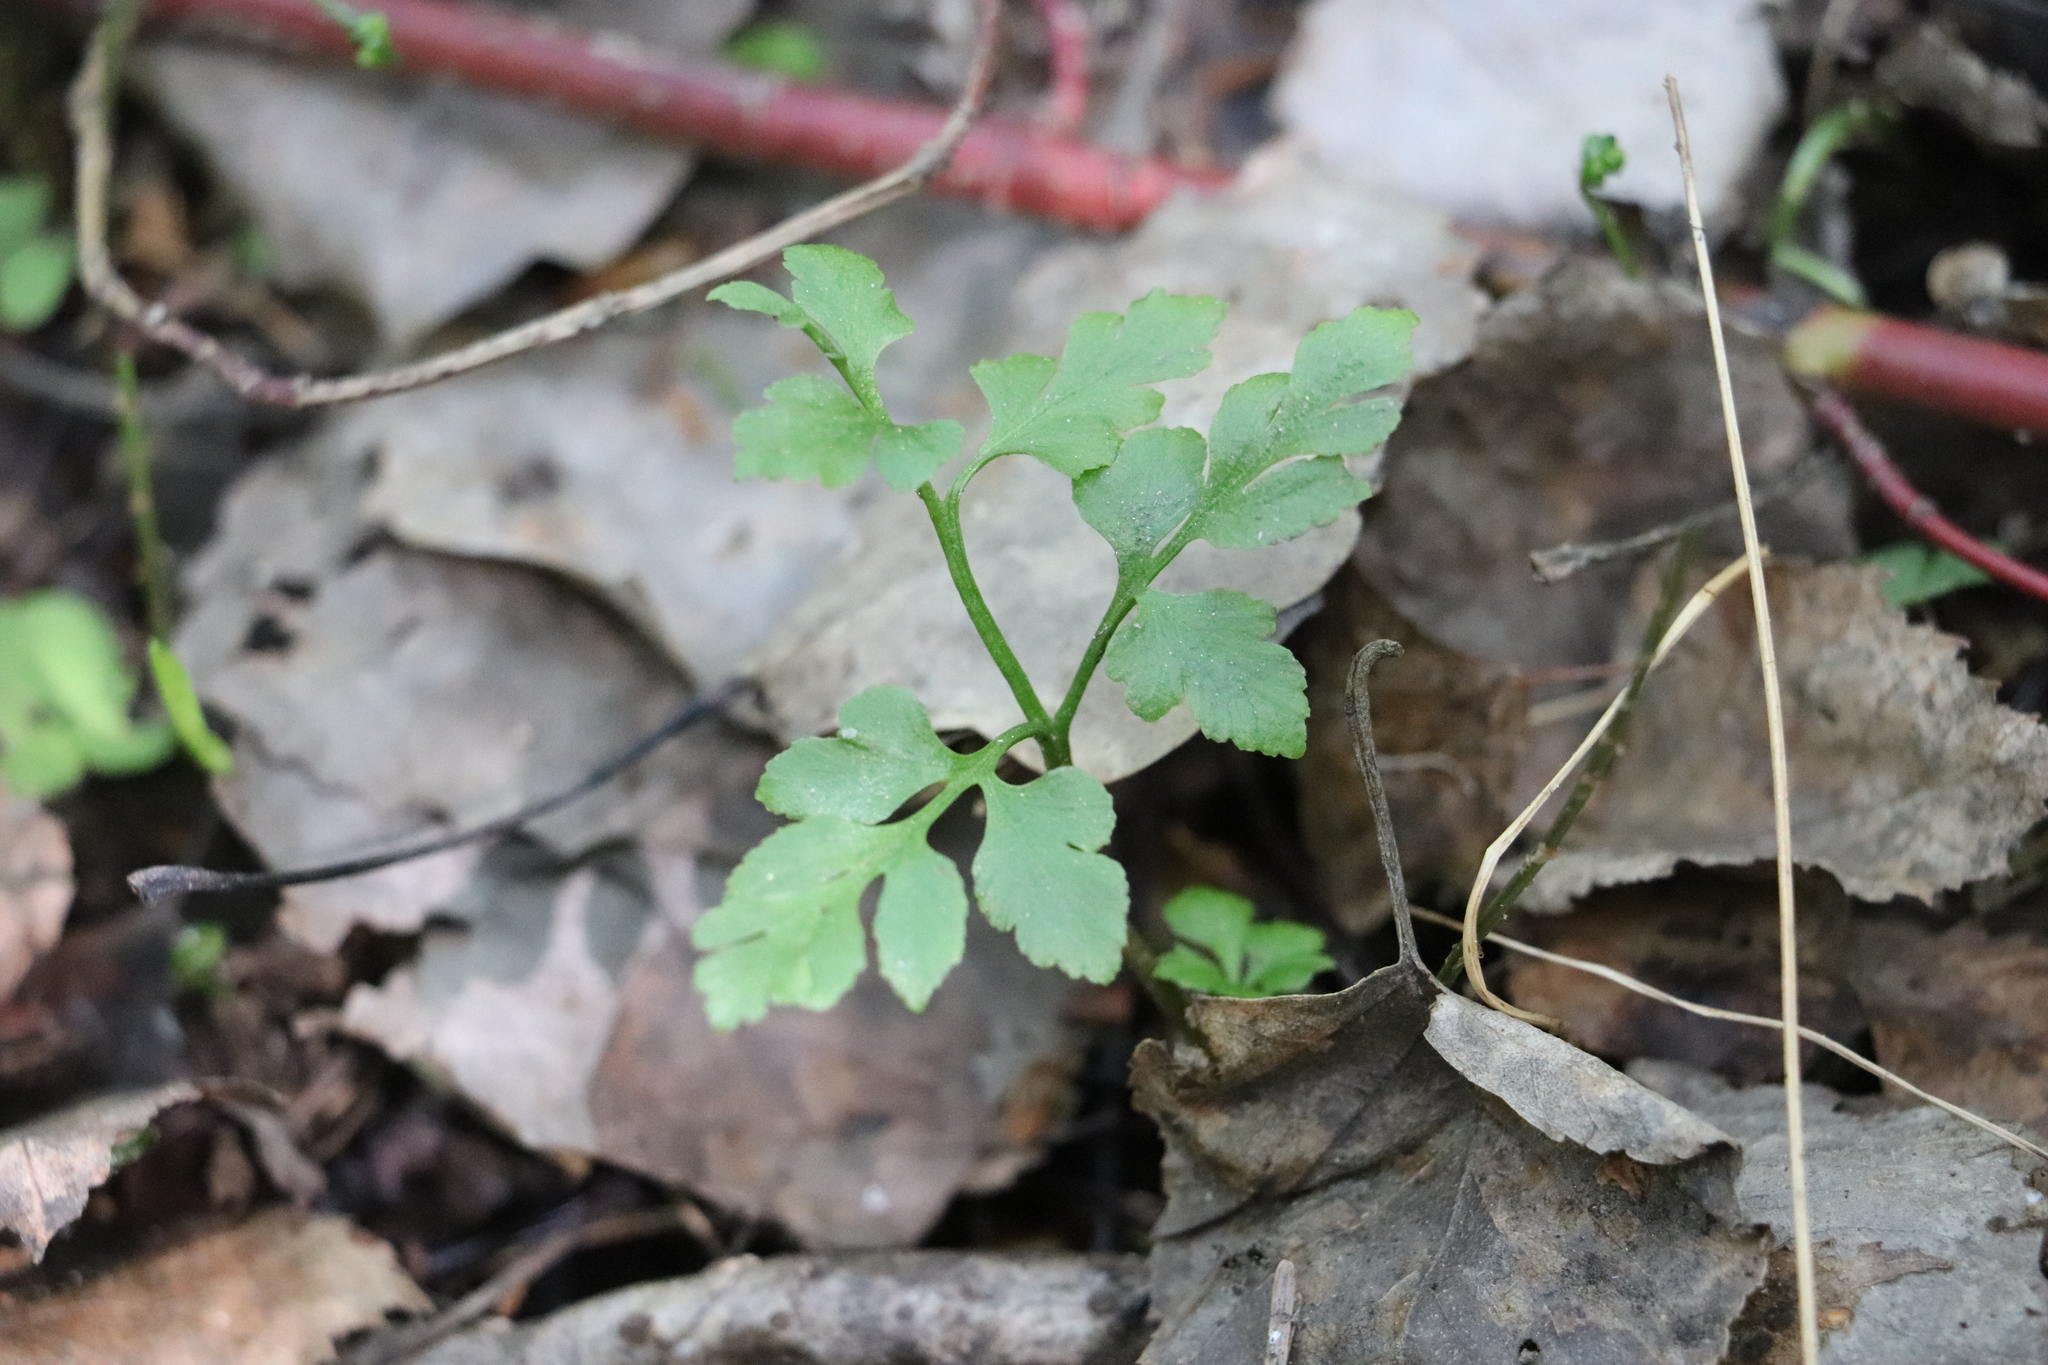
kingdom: Plantae
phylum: Tracheophyta
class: Polypodiopsida
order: Ophioglossales
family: Ophioglossaceae
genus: Sceptridium
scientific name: Sceptridium multifidum
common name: Leathery grape fern
